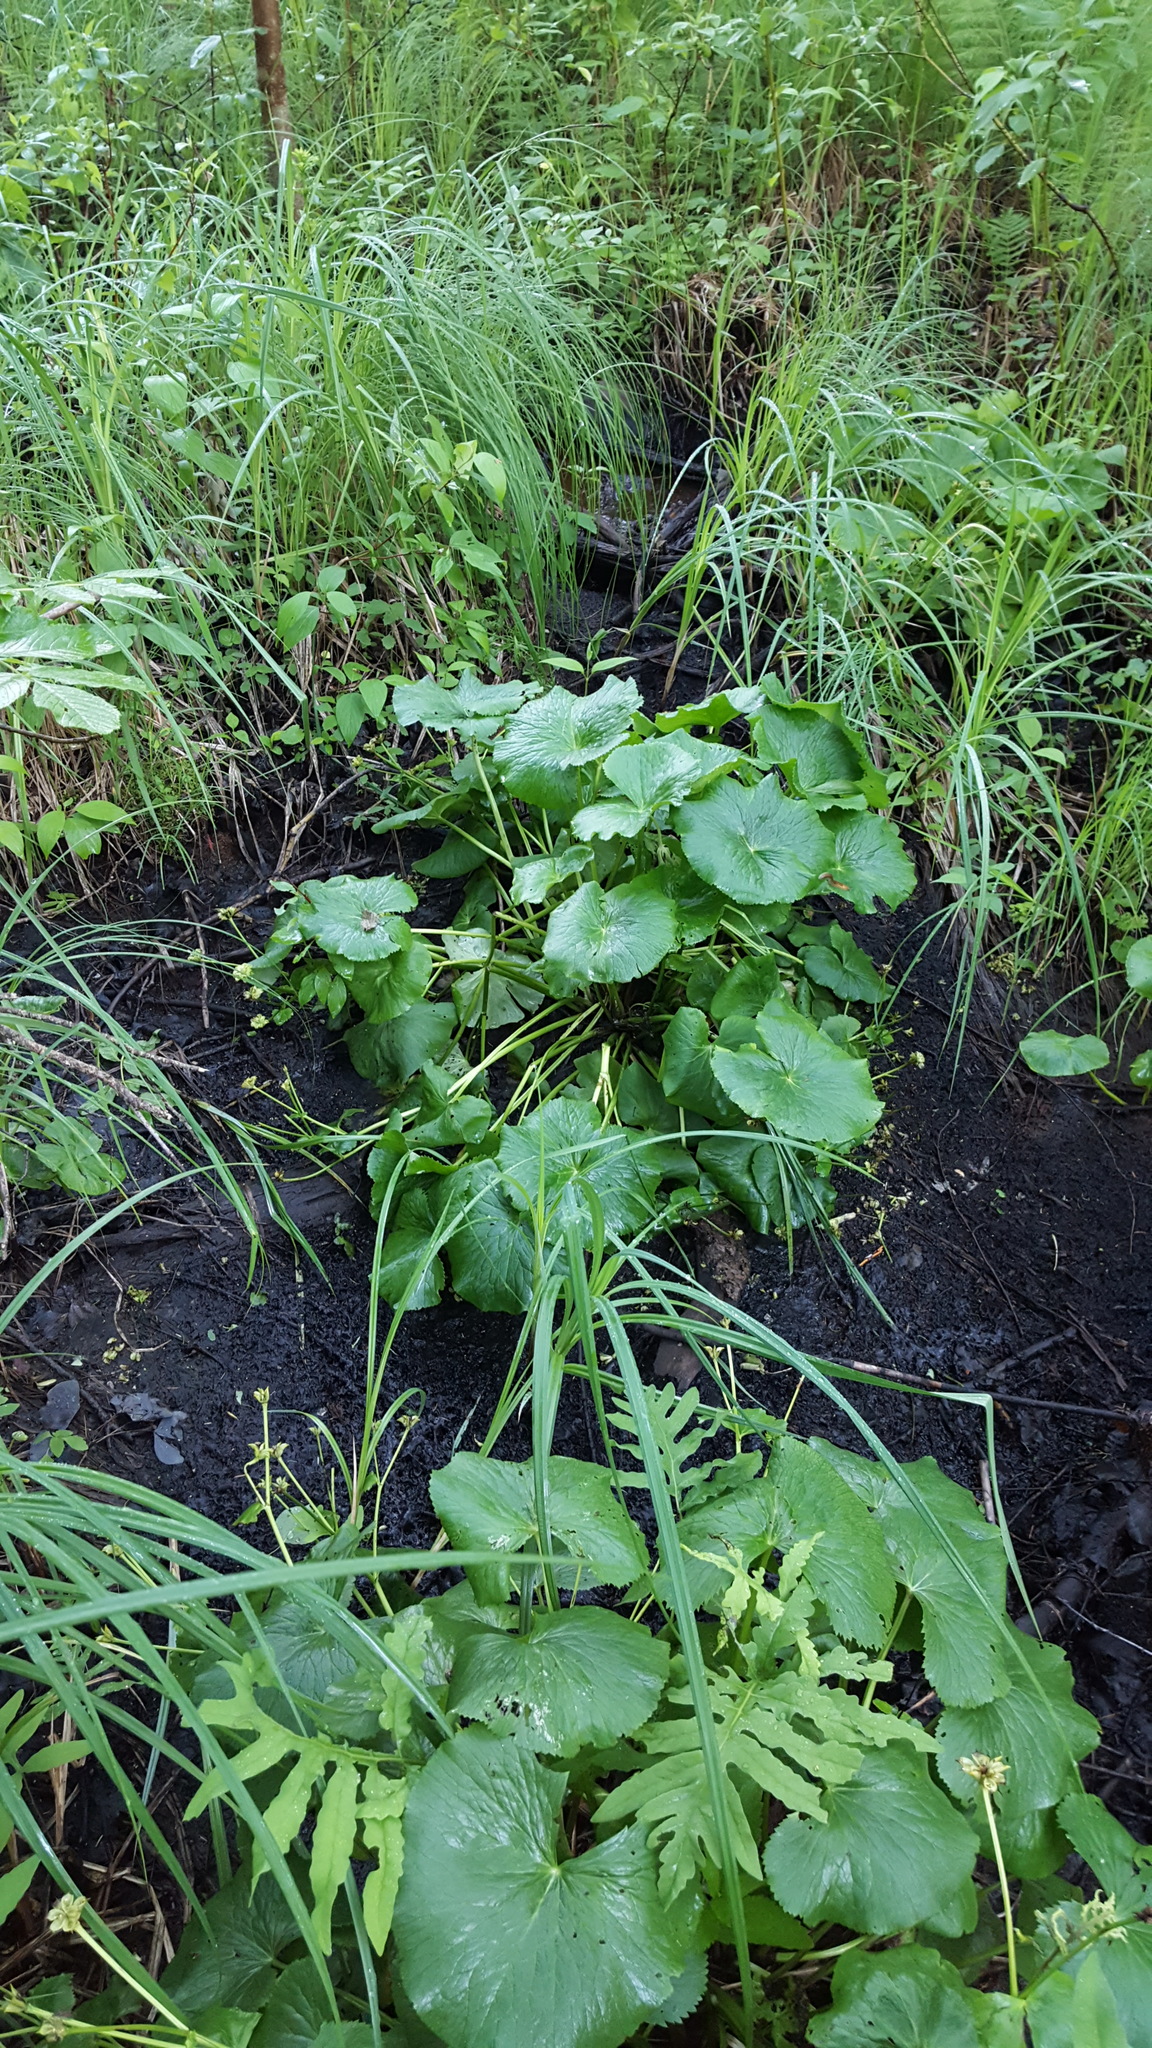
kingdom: Plantae
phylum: Tracheophyta
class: Magnoliopsida
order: Ranunculales
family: Ranunculaceae
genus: Caltha
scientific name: Caltha palustris
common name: Marsh marigold
